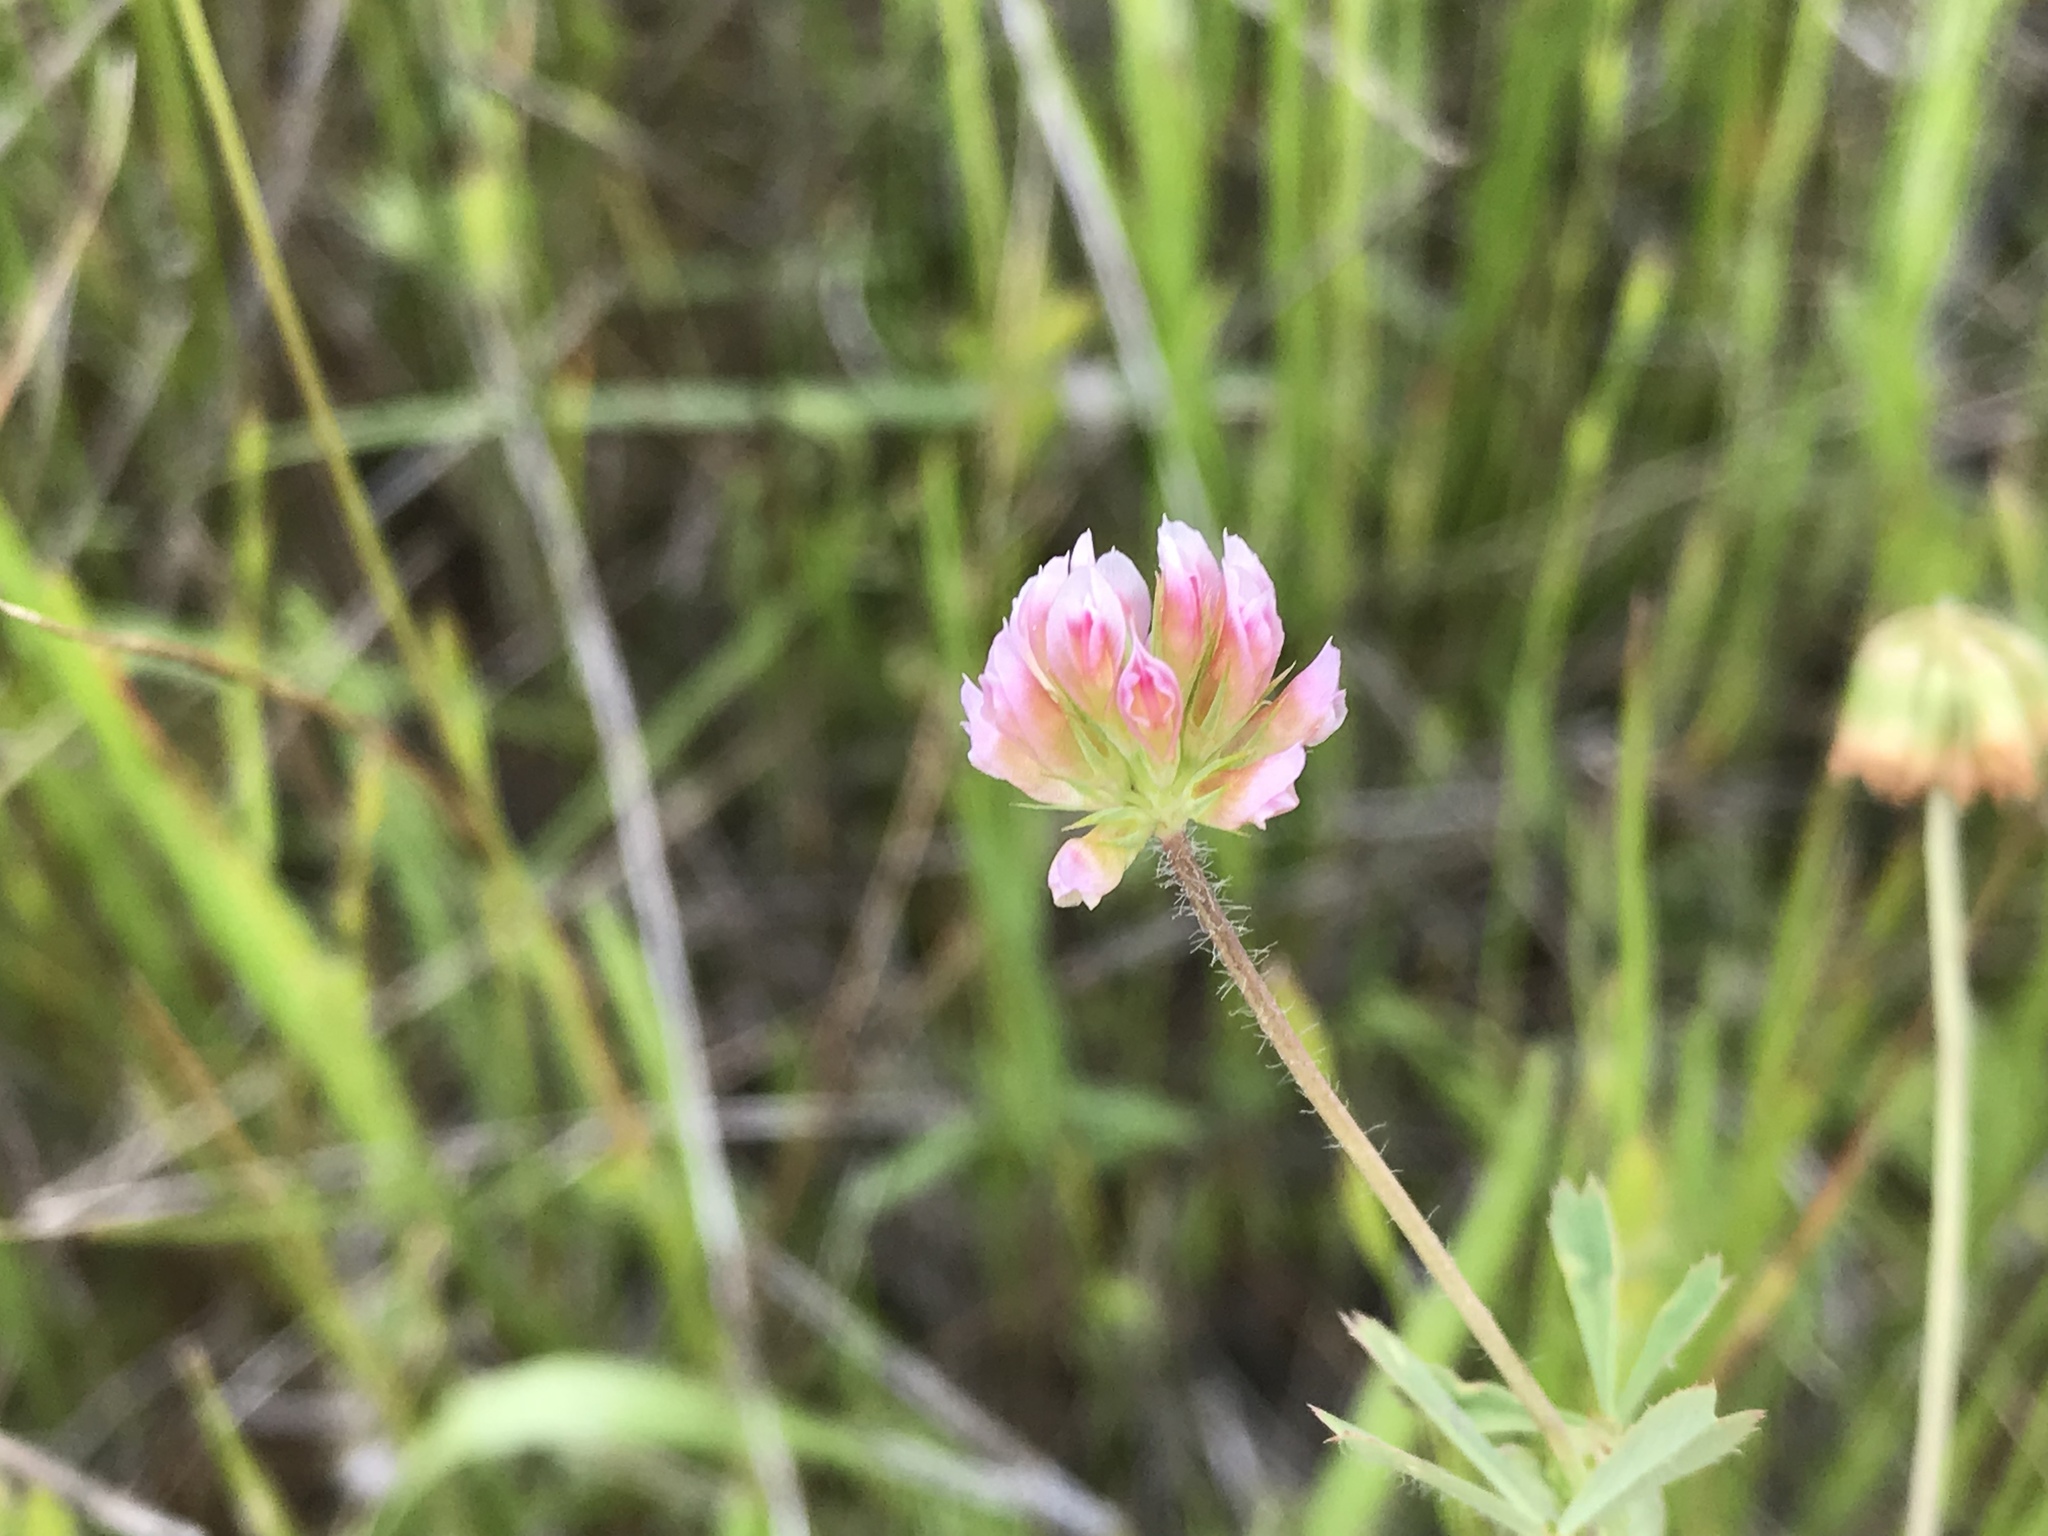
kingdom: Plantae
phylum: Tracheophyta
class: Magnoliopsida
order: Fabales
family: Fabaceae
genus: Trifolium
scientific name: Trifolium bifidum
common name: Notch-leaf clover
